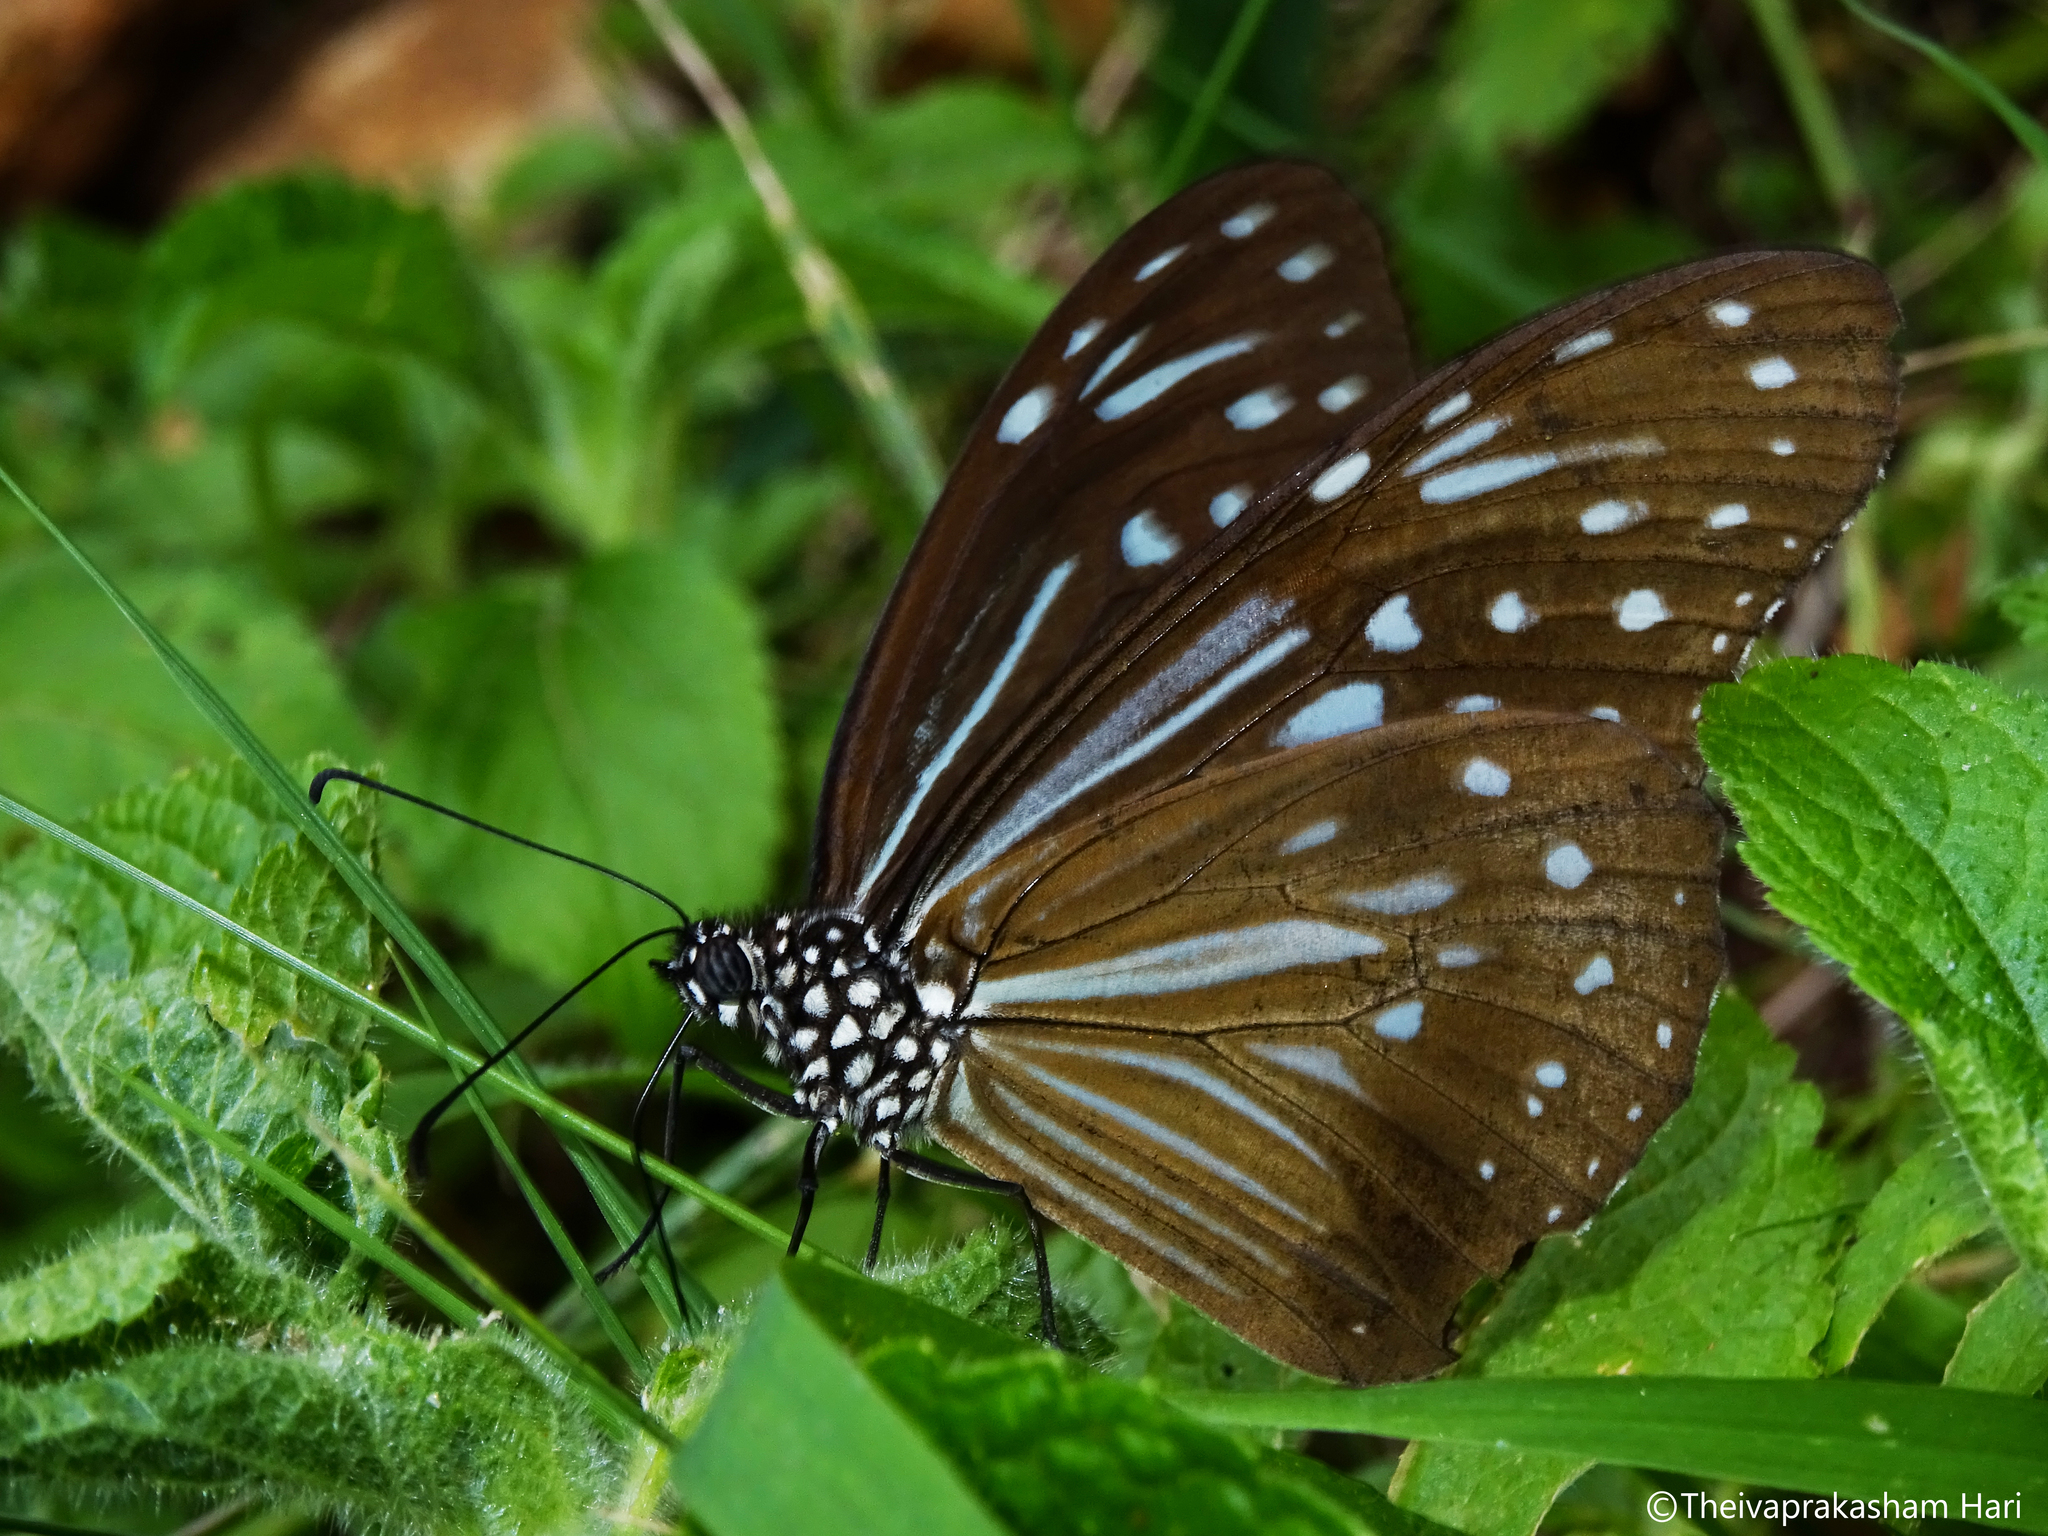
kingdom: Animalia
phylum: Arthropoda
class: Insecta
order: Lepidoptera
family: Nymphalidae
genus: Parantica
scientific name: Parantica nilgiriensis
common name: Nilgiri tiger
